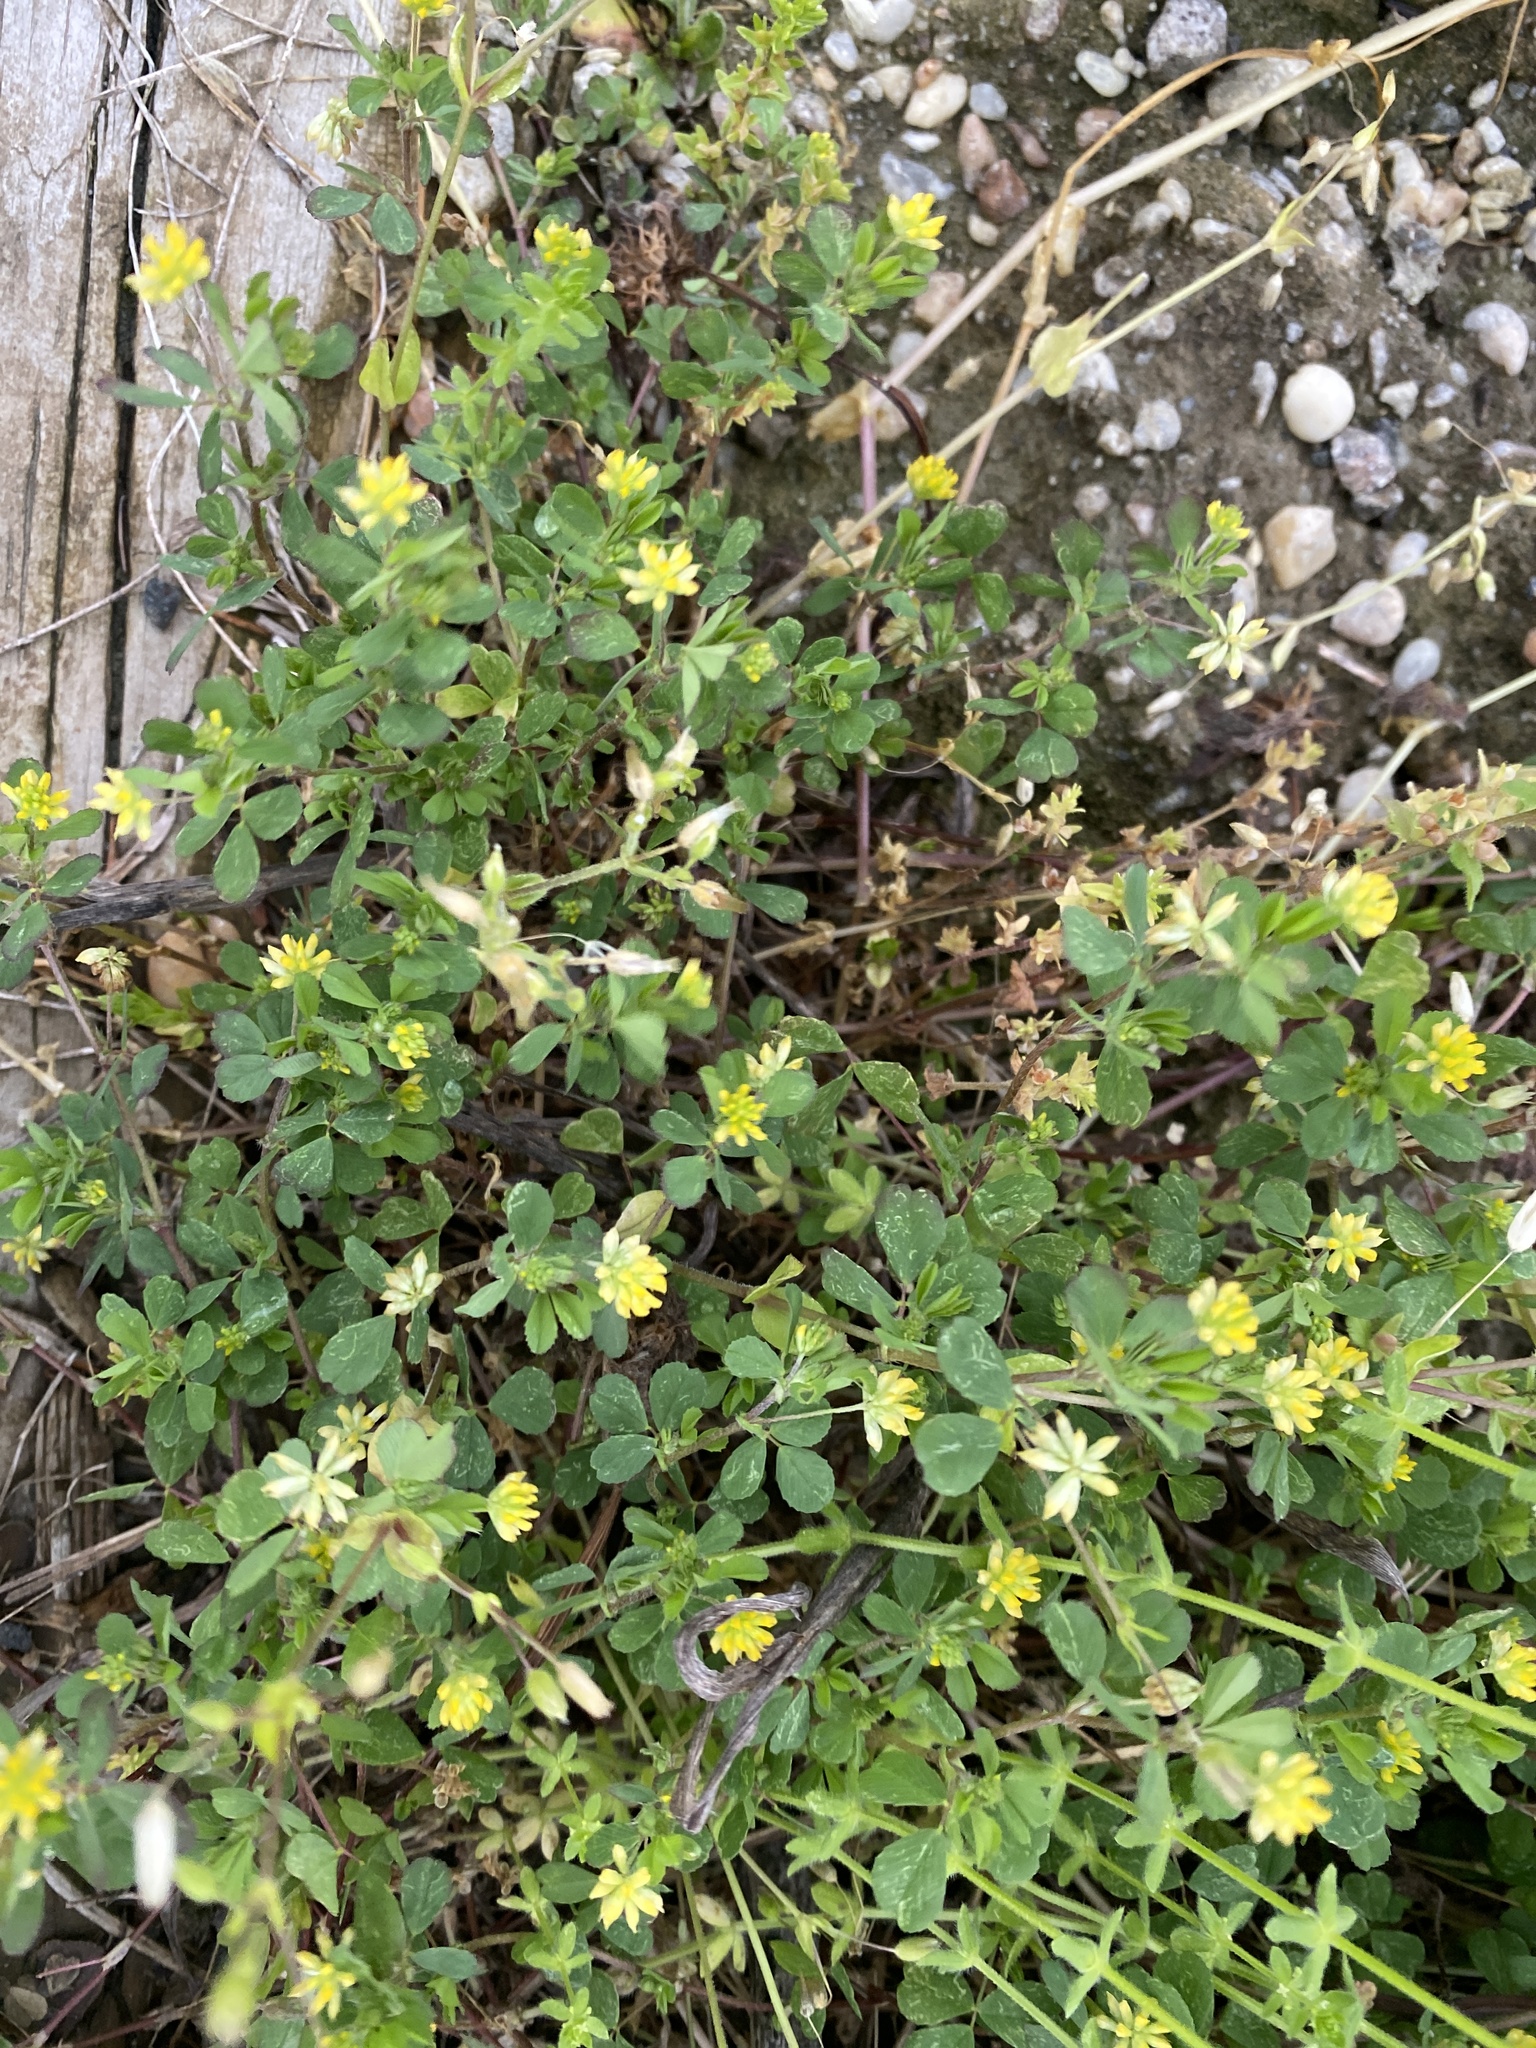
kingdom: Plantae
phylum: Tracheophyta
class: Magnoliopsida
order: Fabales
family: Fabaceae
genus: Trifolium
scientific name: Trifolium dubium
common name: Suckling clover
